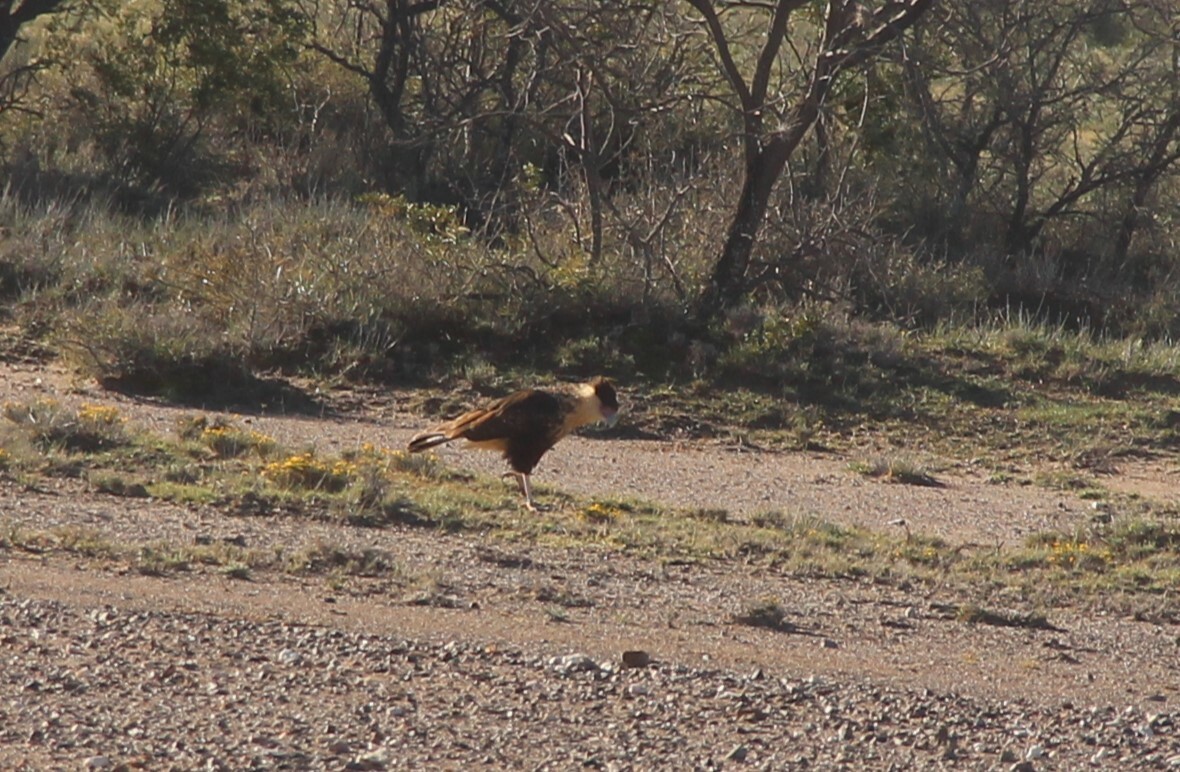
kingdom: Animalia
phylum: Chordata
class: Aves
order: Falconiformes
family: Falconidae
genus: Caracara
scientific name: Caracara plancus
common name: Southern caracara
